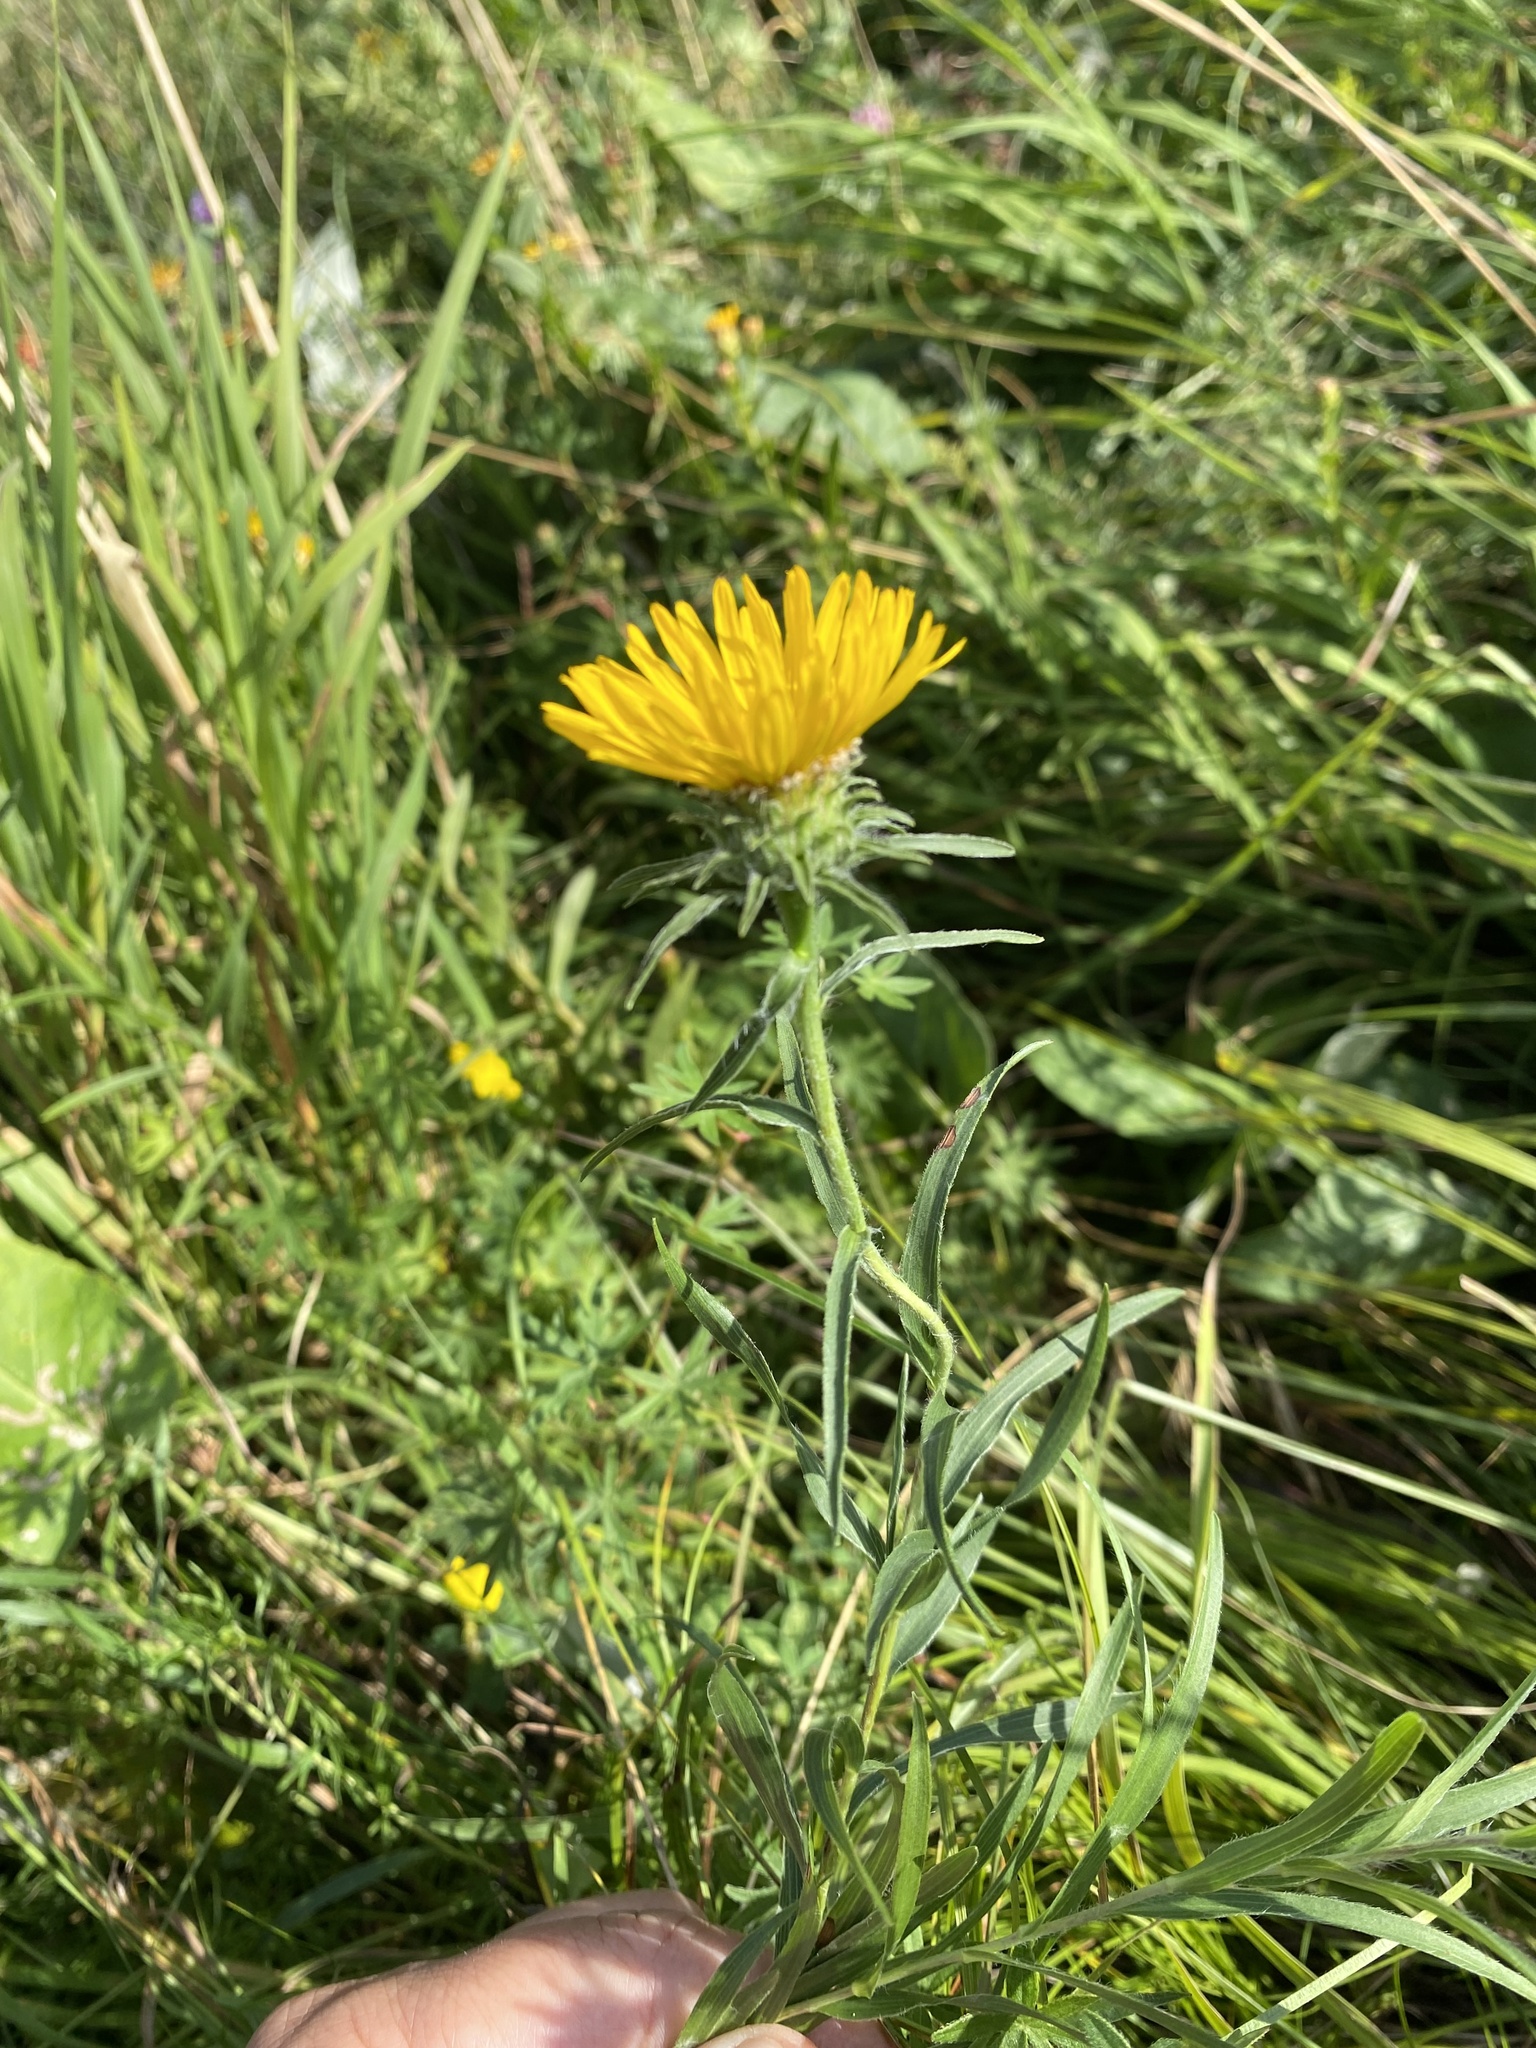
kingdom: Plantae
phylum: Tracheophyta
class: Magnoliopsida
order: Asterales
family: Asteraceae
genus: Pentanema
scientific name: Pentanema ensifolium
